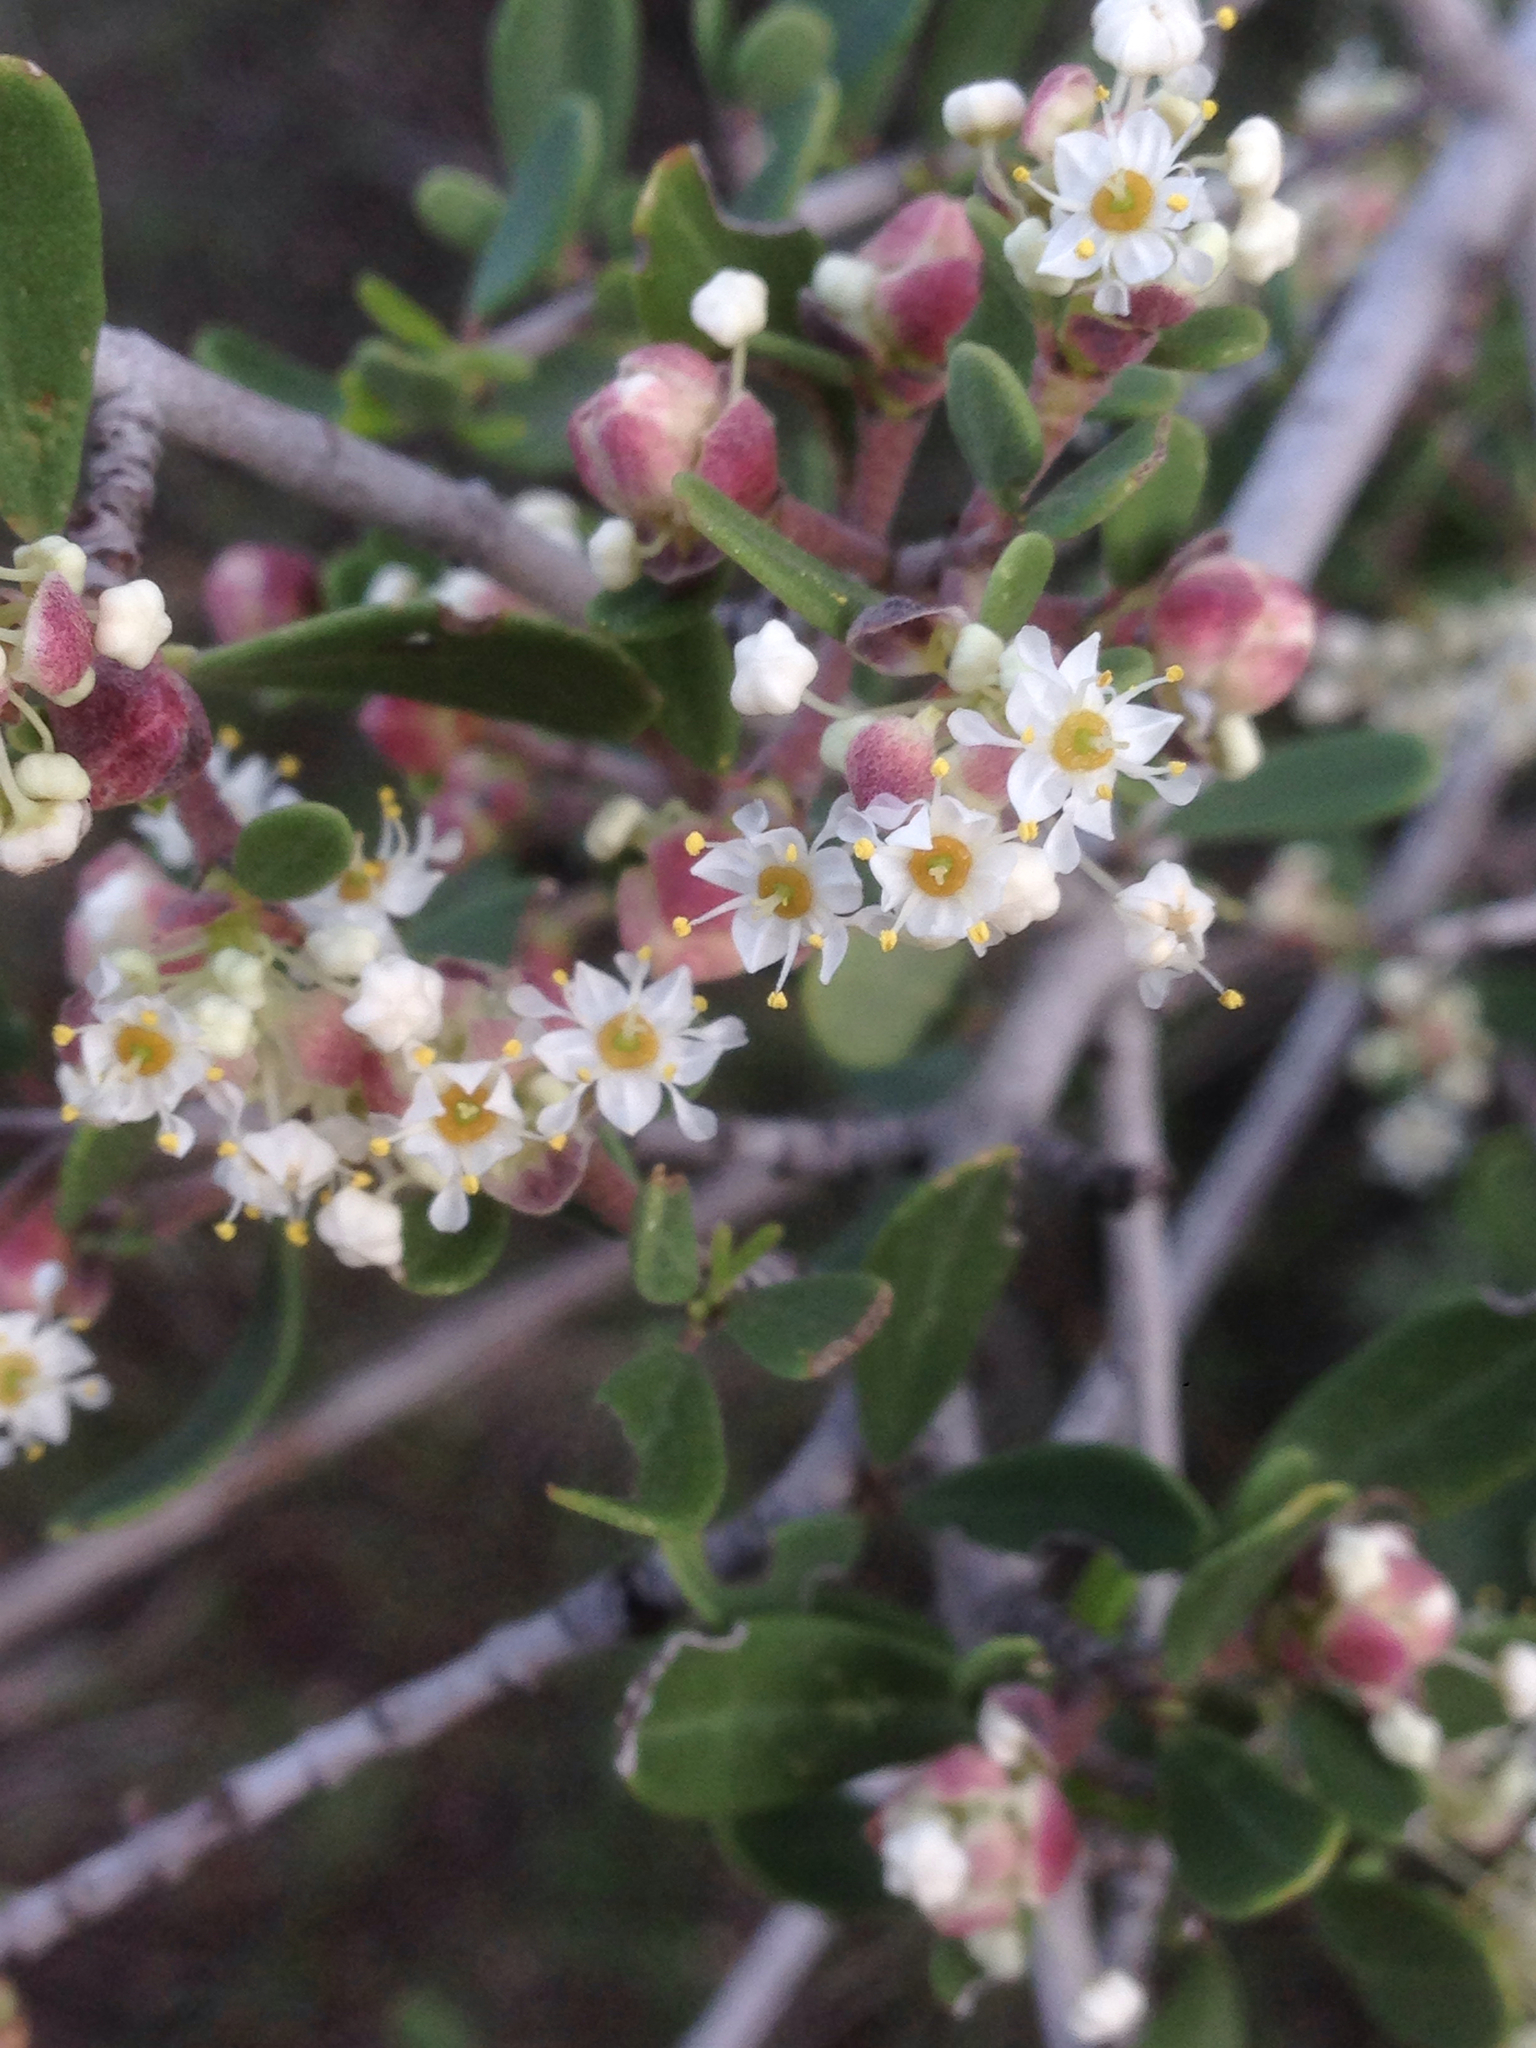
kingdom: Plantae
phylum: Tracheophyta
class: Magnoliopsida
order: Rosales
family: Rhamnaceae
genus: Ceanothus
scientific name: Ceanothus cuneatus
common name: Cuneate ceanothus
